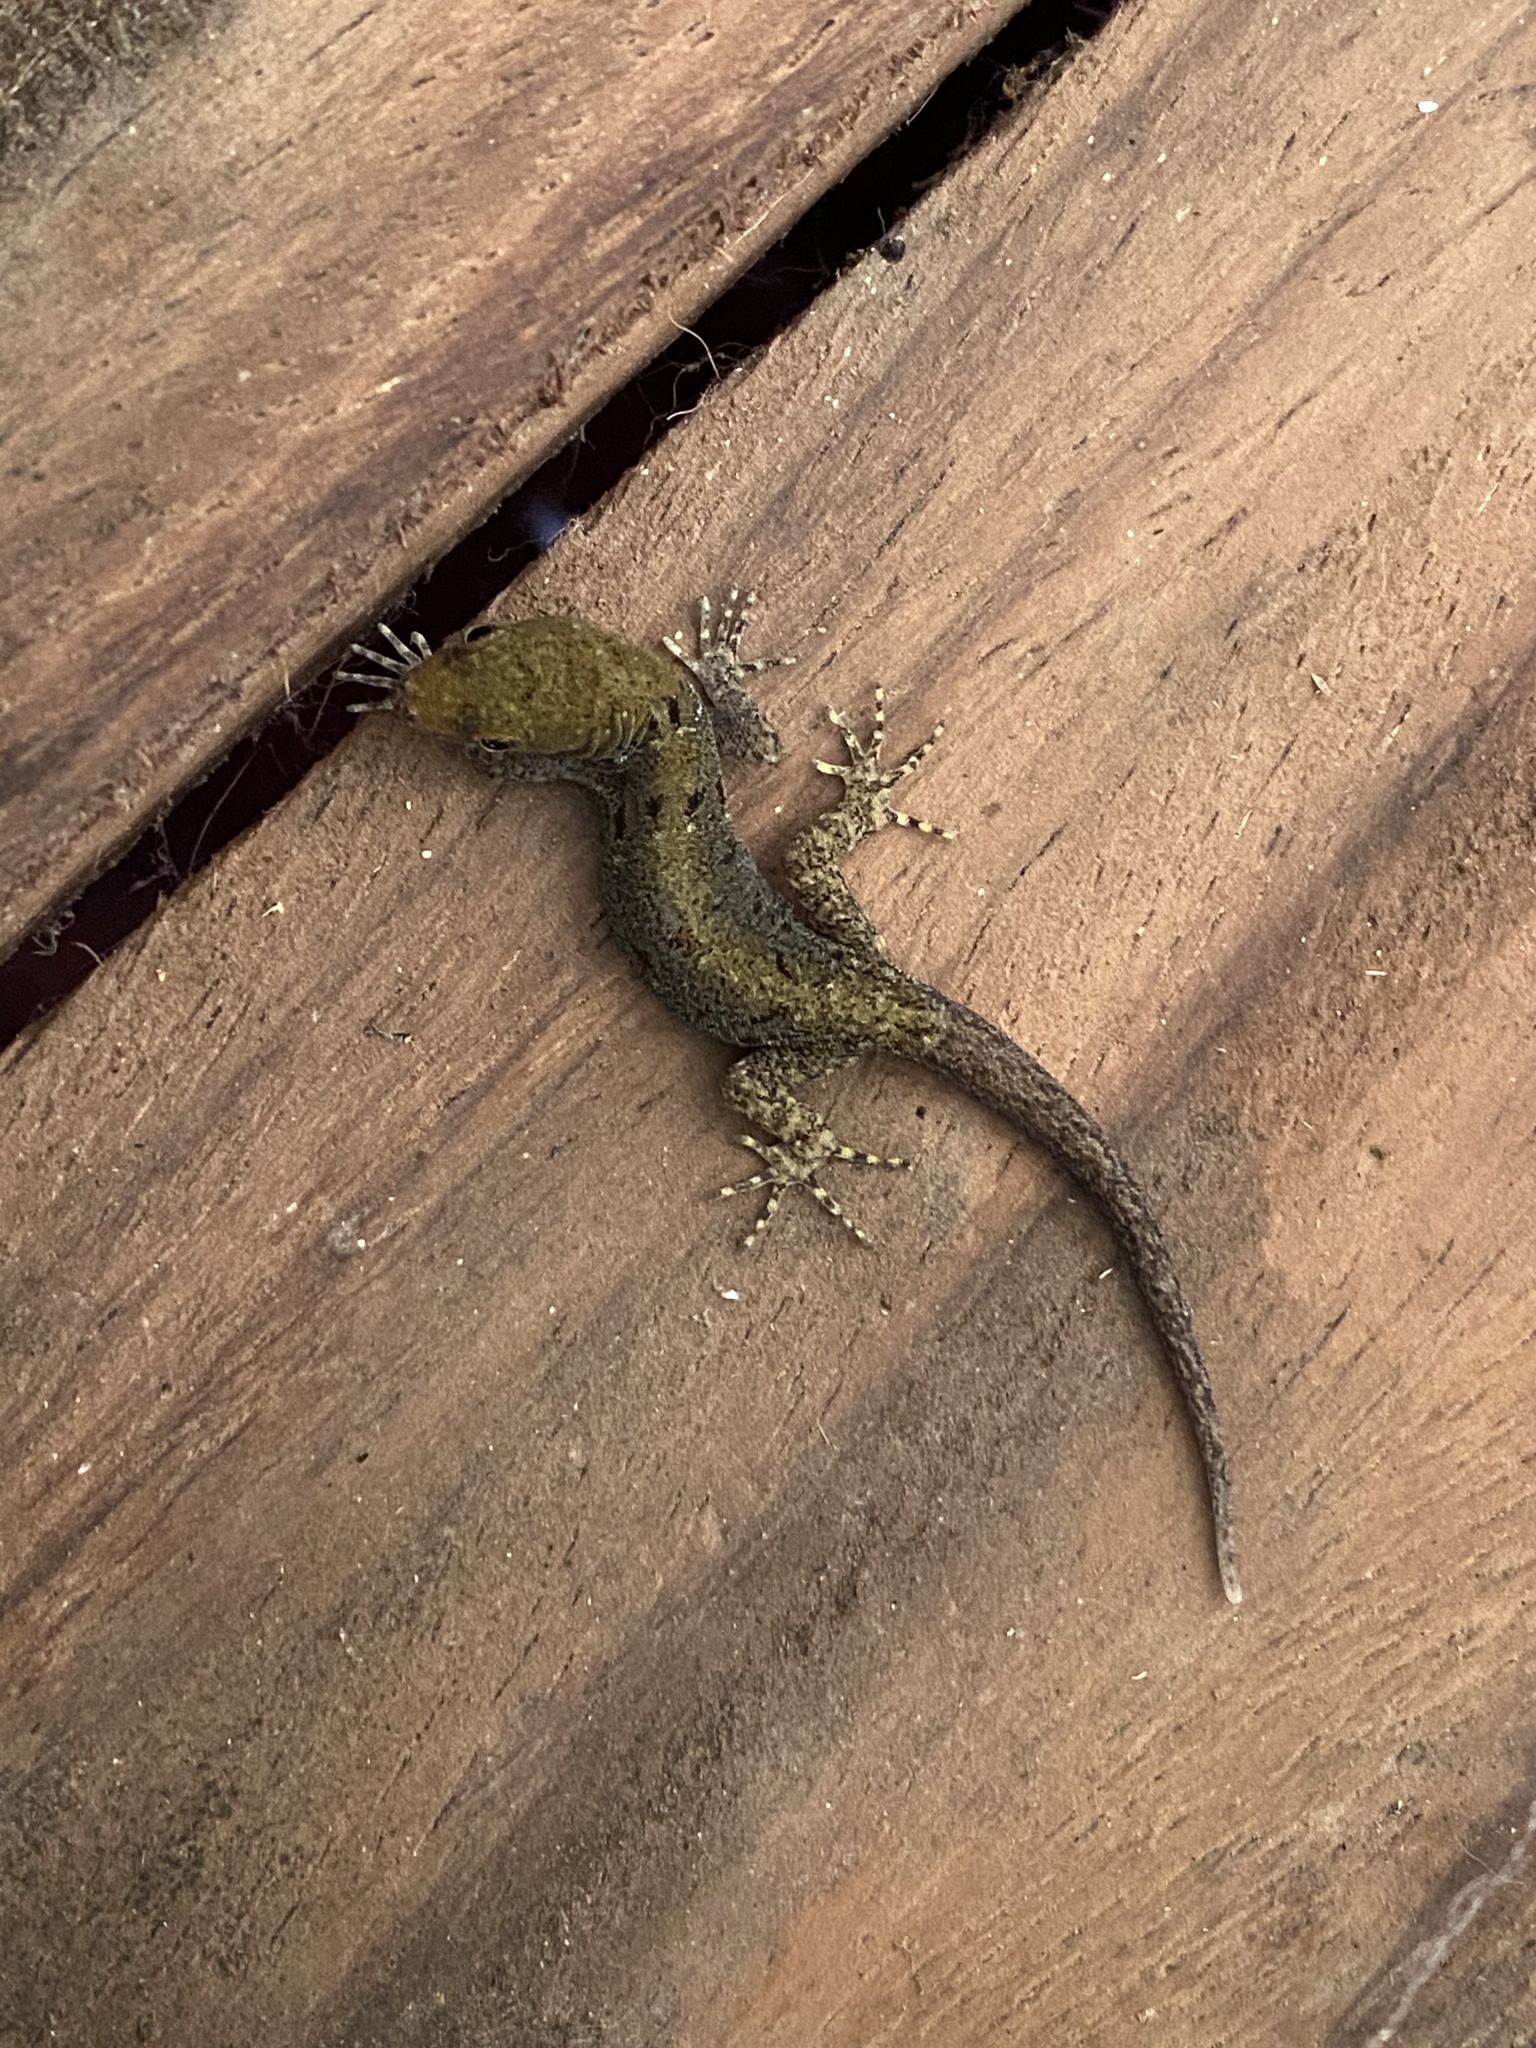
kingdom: Animalia
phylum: Chordata
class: Squamata
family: Sphaerodactylidae
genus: Gonatodes
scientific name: Gonatodes albogularis
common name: Yellow-headed gecko
